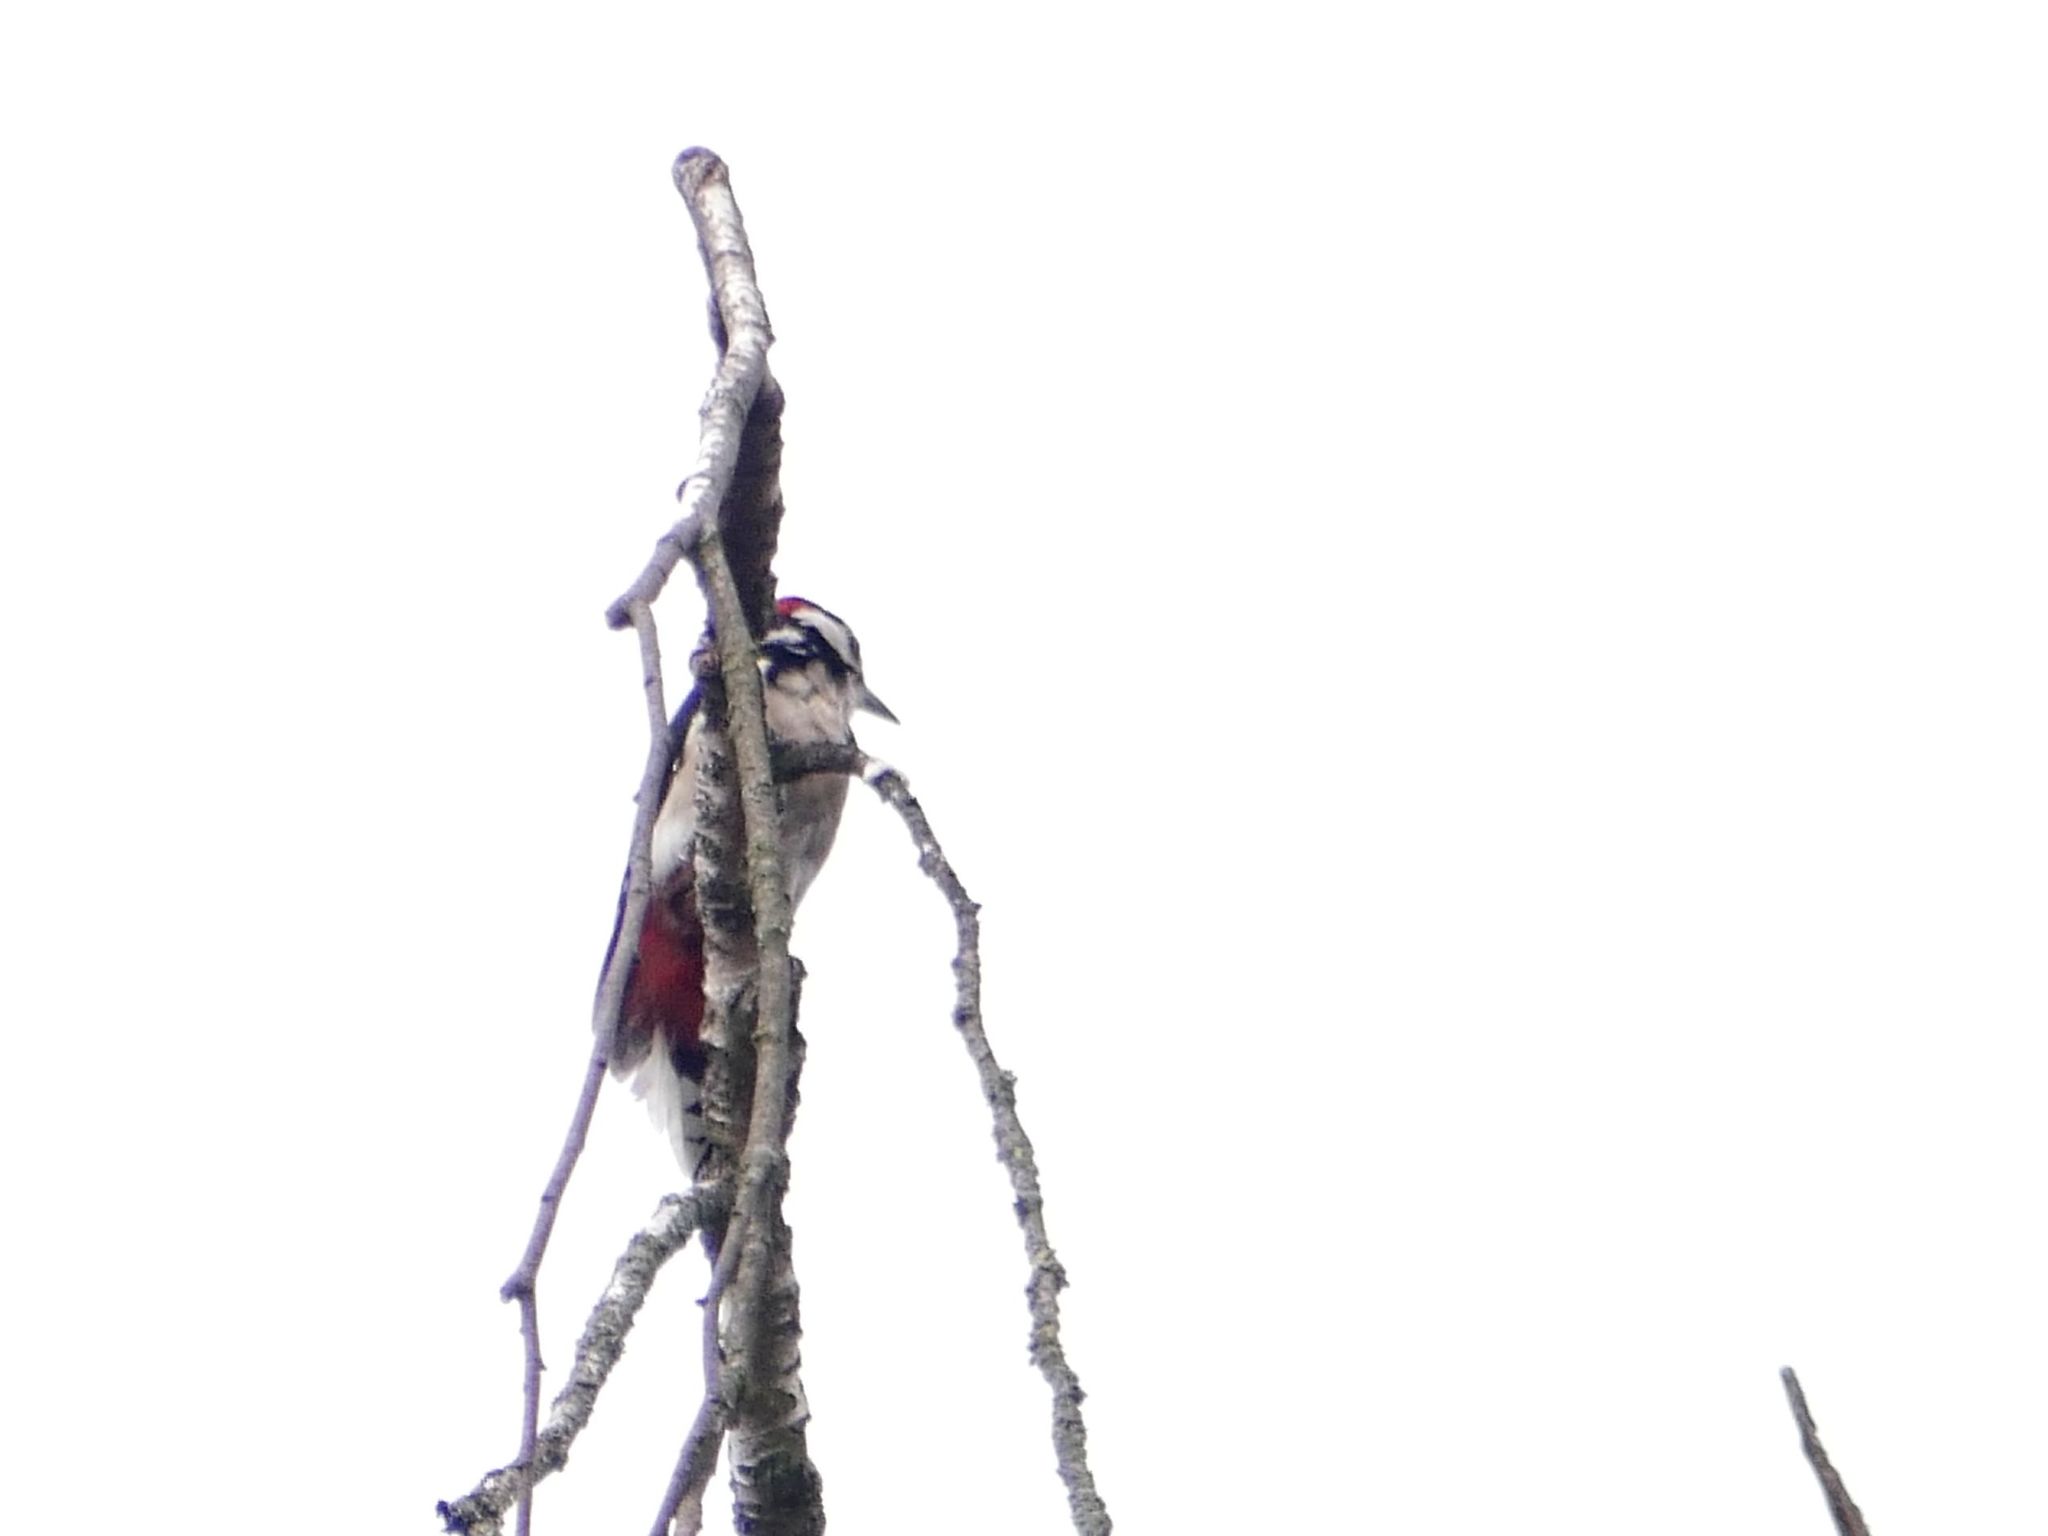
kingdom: Animalia
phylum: Chordata
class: Aves
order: Piciformes
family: Picidae
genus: Dendrocopos
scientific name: Dendrocopos major
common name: Great spotted woodpecker
